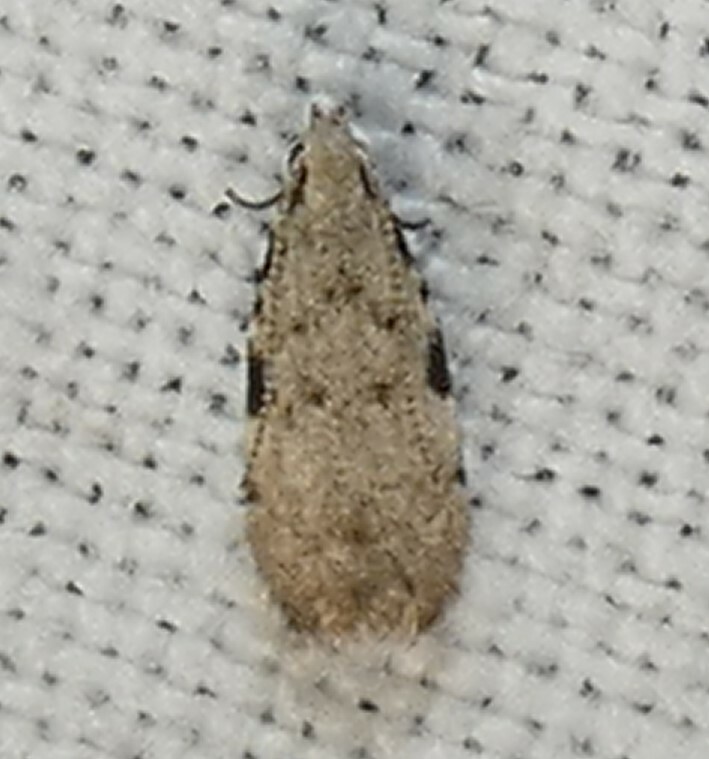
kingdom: Animalia
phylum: Arthropoda
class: Insecta
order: Lepidoptera
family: Autostichidae
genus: Taygete
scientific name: Taygete gallaegenitella
